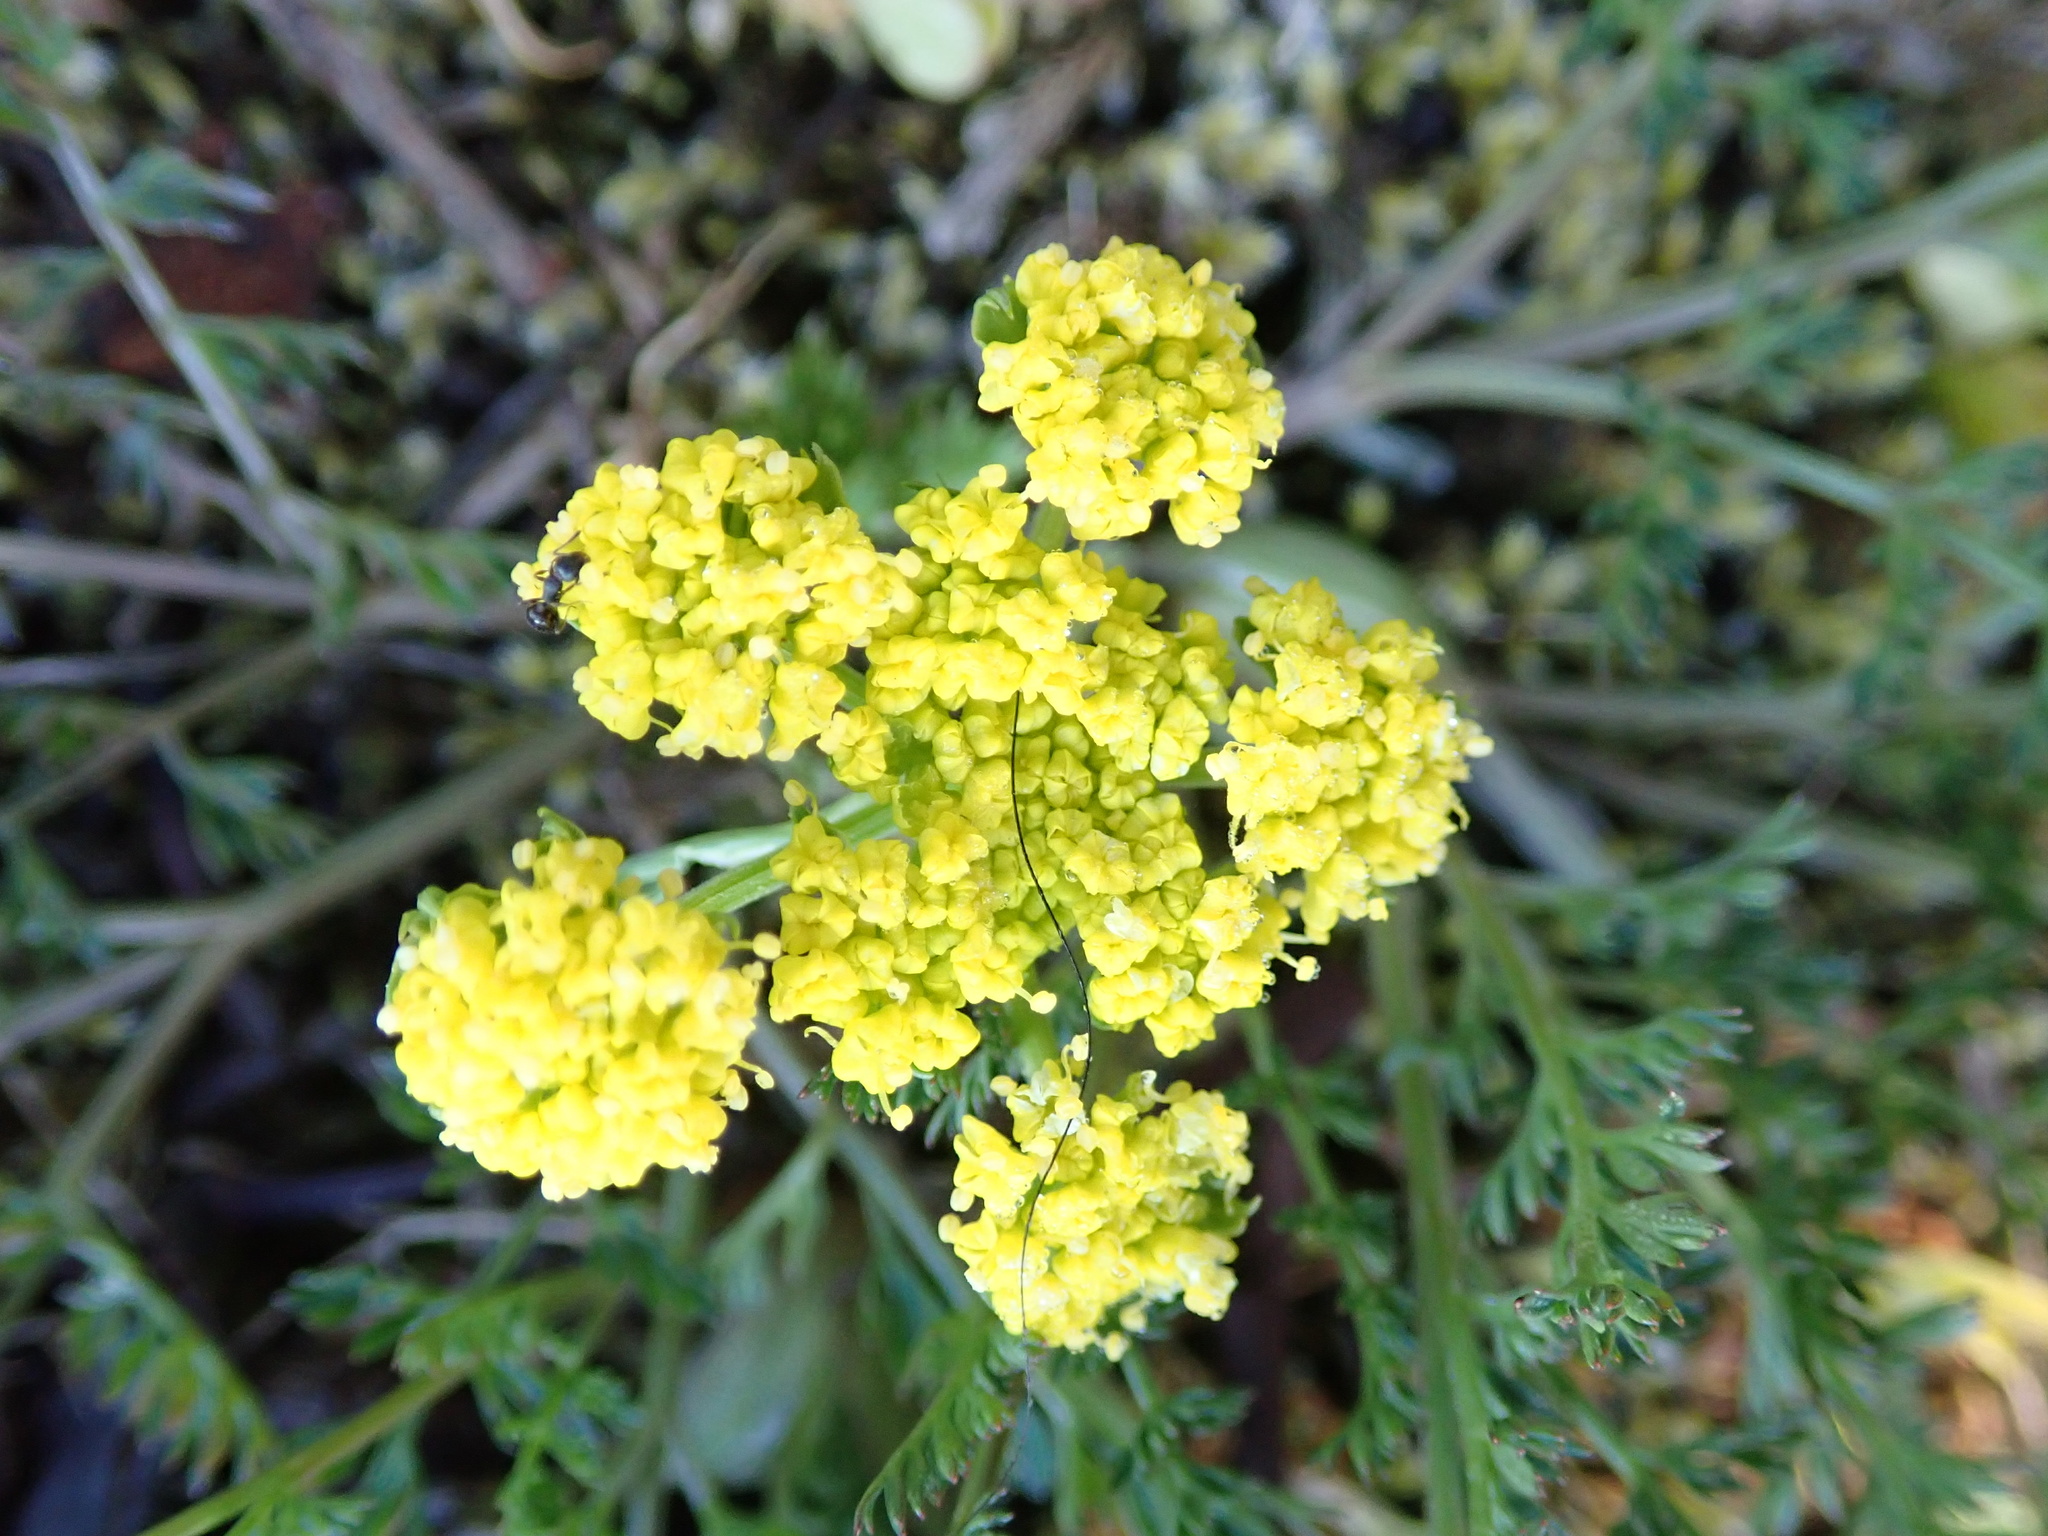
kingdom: Plantae
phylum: Tracheophyta
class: Magnoliopsida
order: Apiales
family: Apiaceae
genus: Lomatium
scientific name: Lomatium utriculatum
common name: Fine-leaf desert-parsley
